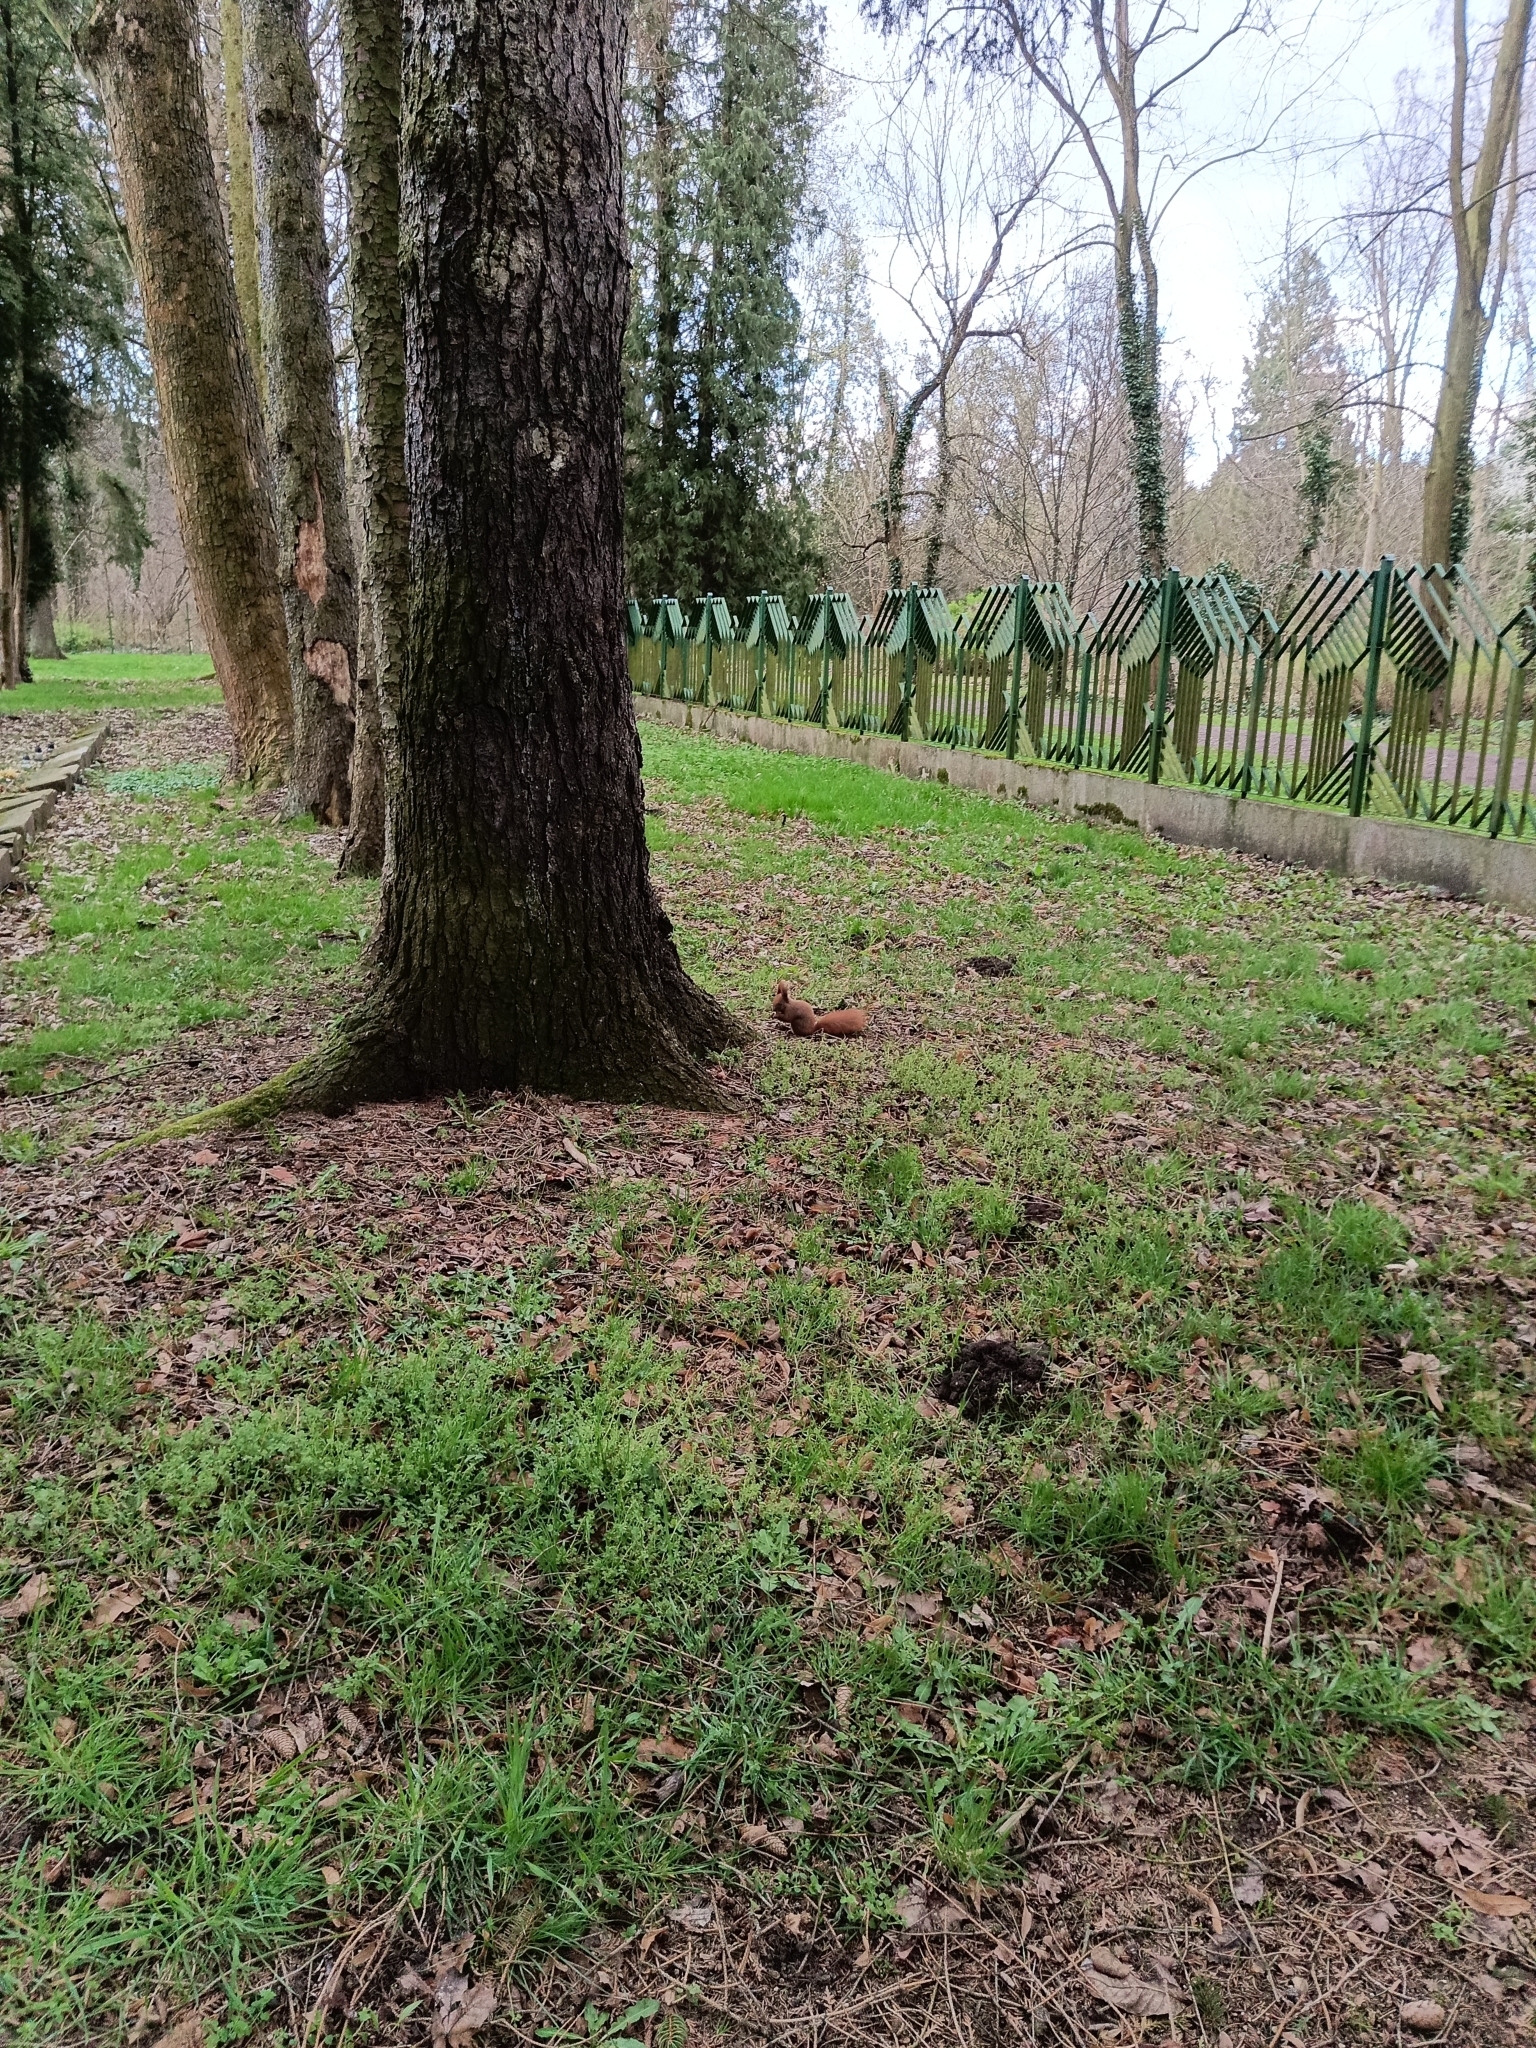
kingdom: Animalia
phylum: Chordata
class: Mammalia
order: Rodentia
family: Sciuridae
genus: Sciurus
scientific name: Sciurus vulgaris
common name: Eurasian red squirrel
